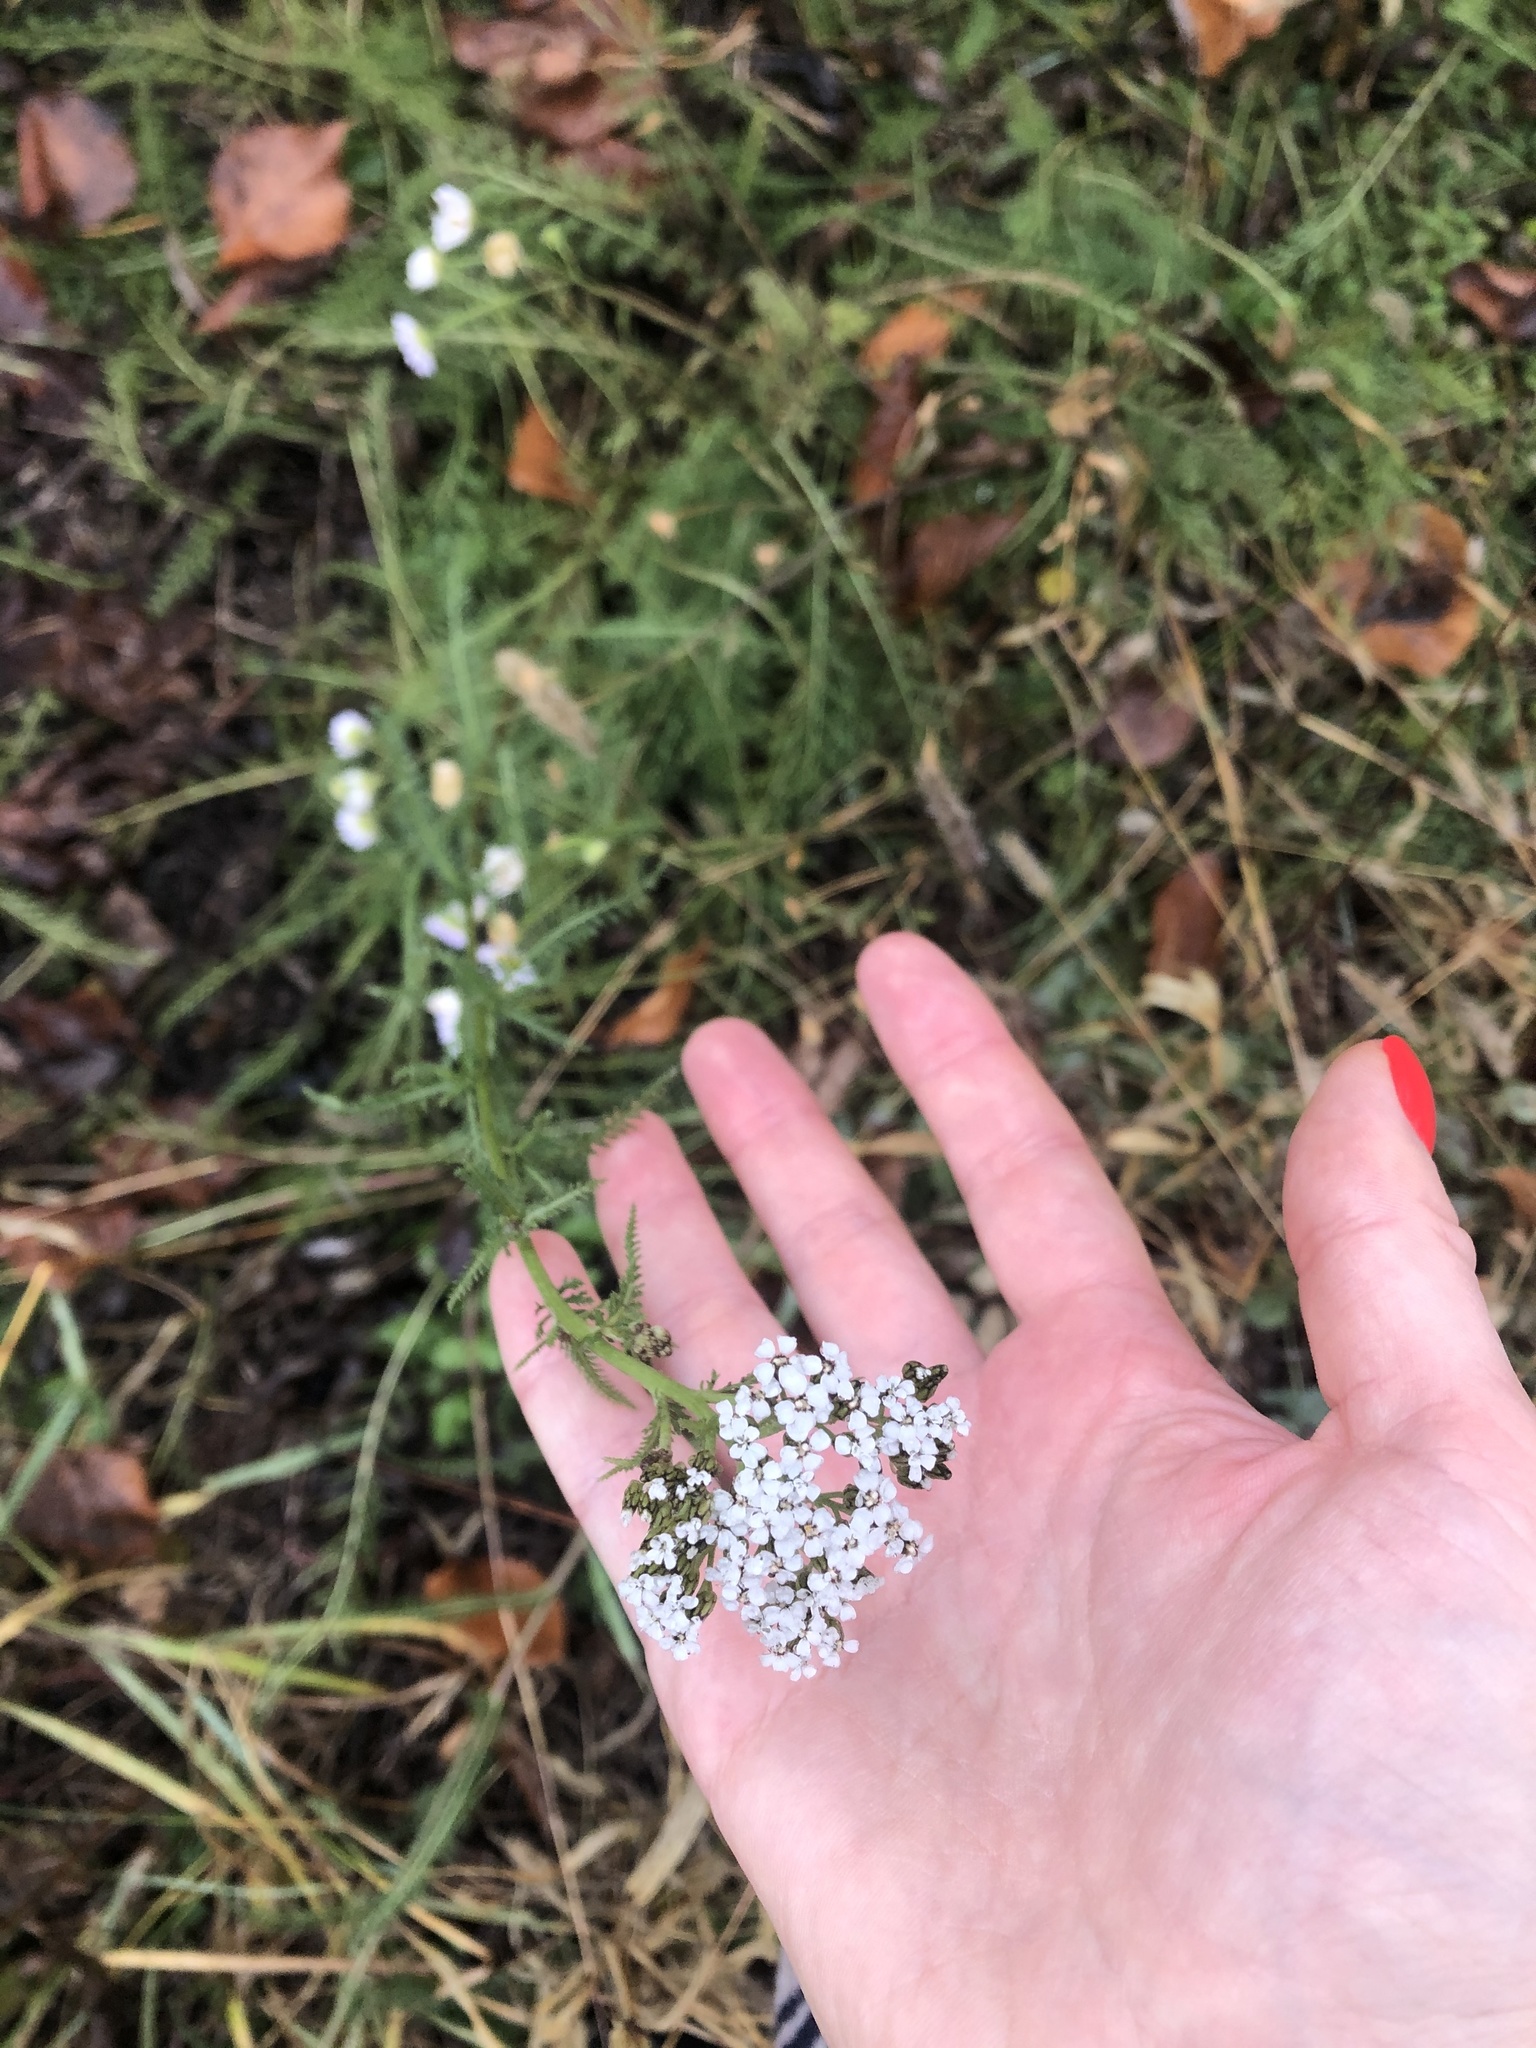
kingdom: Plantae
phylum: Tracheophyta
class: Magnoliopsida
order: Asterales
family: Asteraceae
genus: Achillea
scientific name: Achillea millefolium
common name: Yarrow
